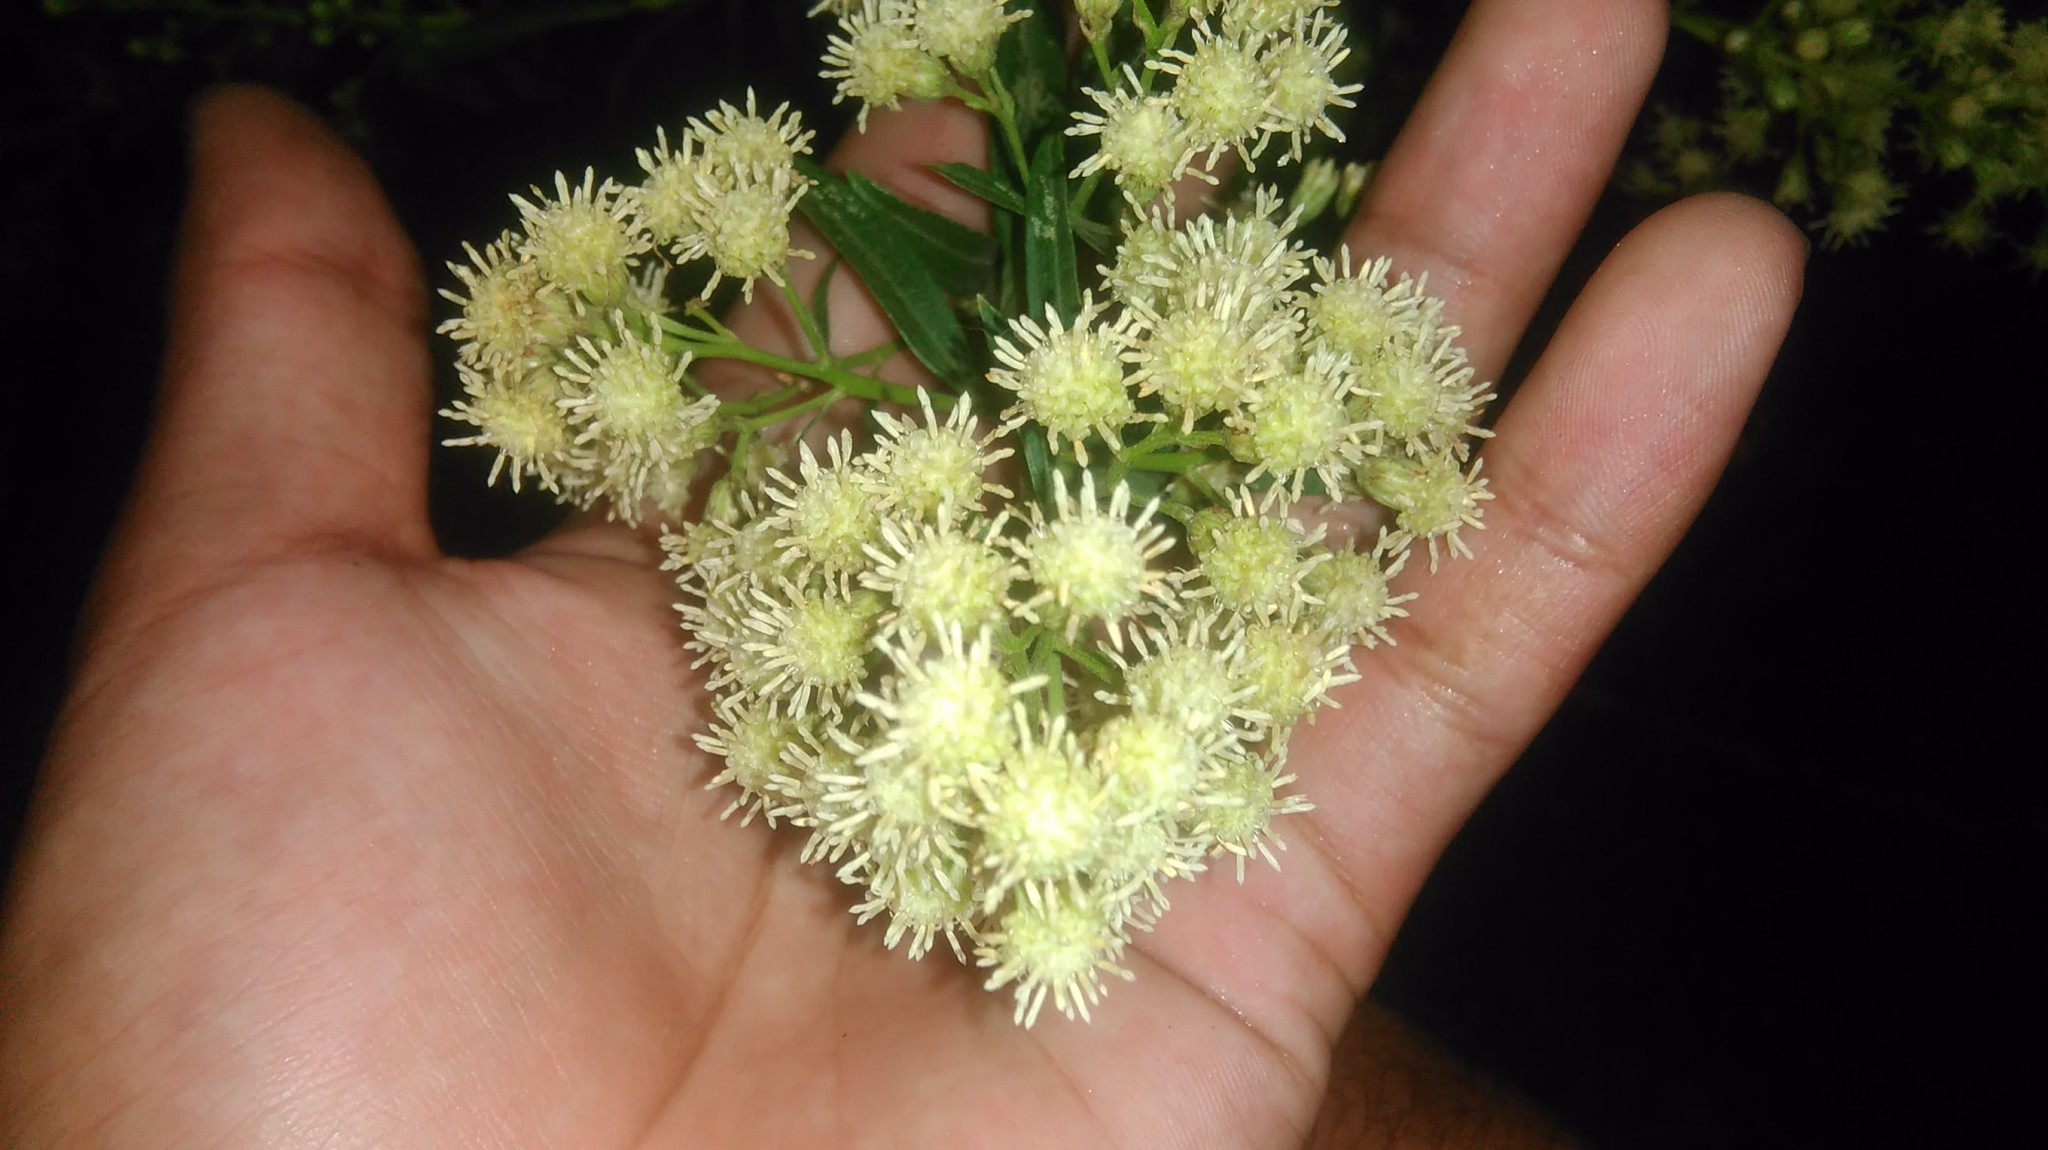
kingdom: Plantae
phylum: Tracheophyta
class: Magnoliopsida
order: Asterales
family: Asteraceae
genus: Baccharis
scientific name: Baccharis glutinosa
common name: Saltmarsh baccharis
